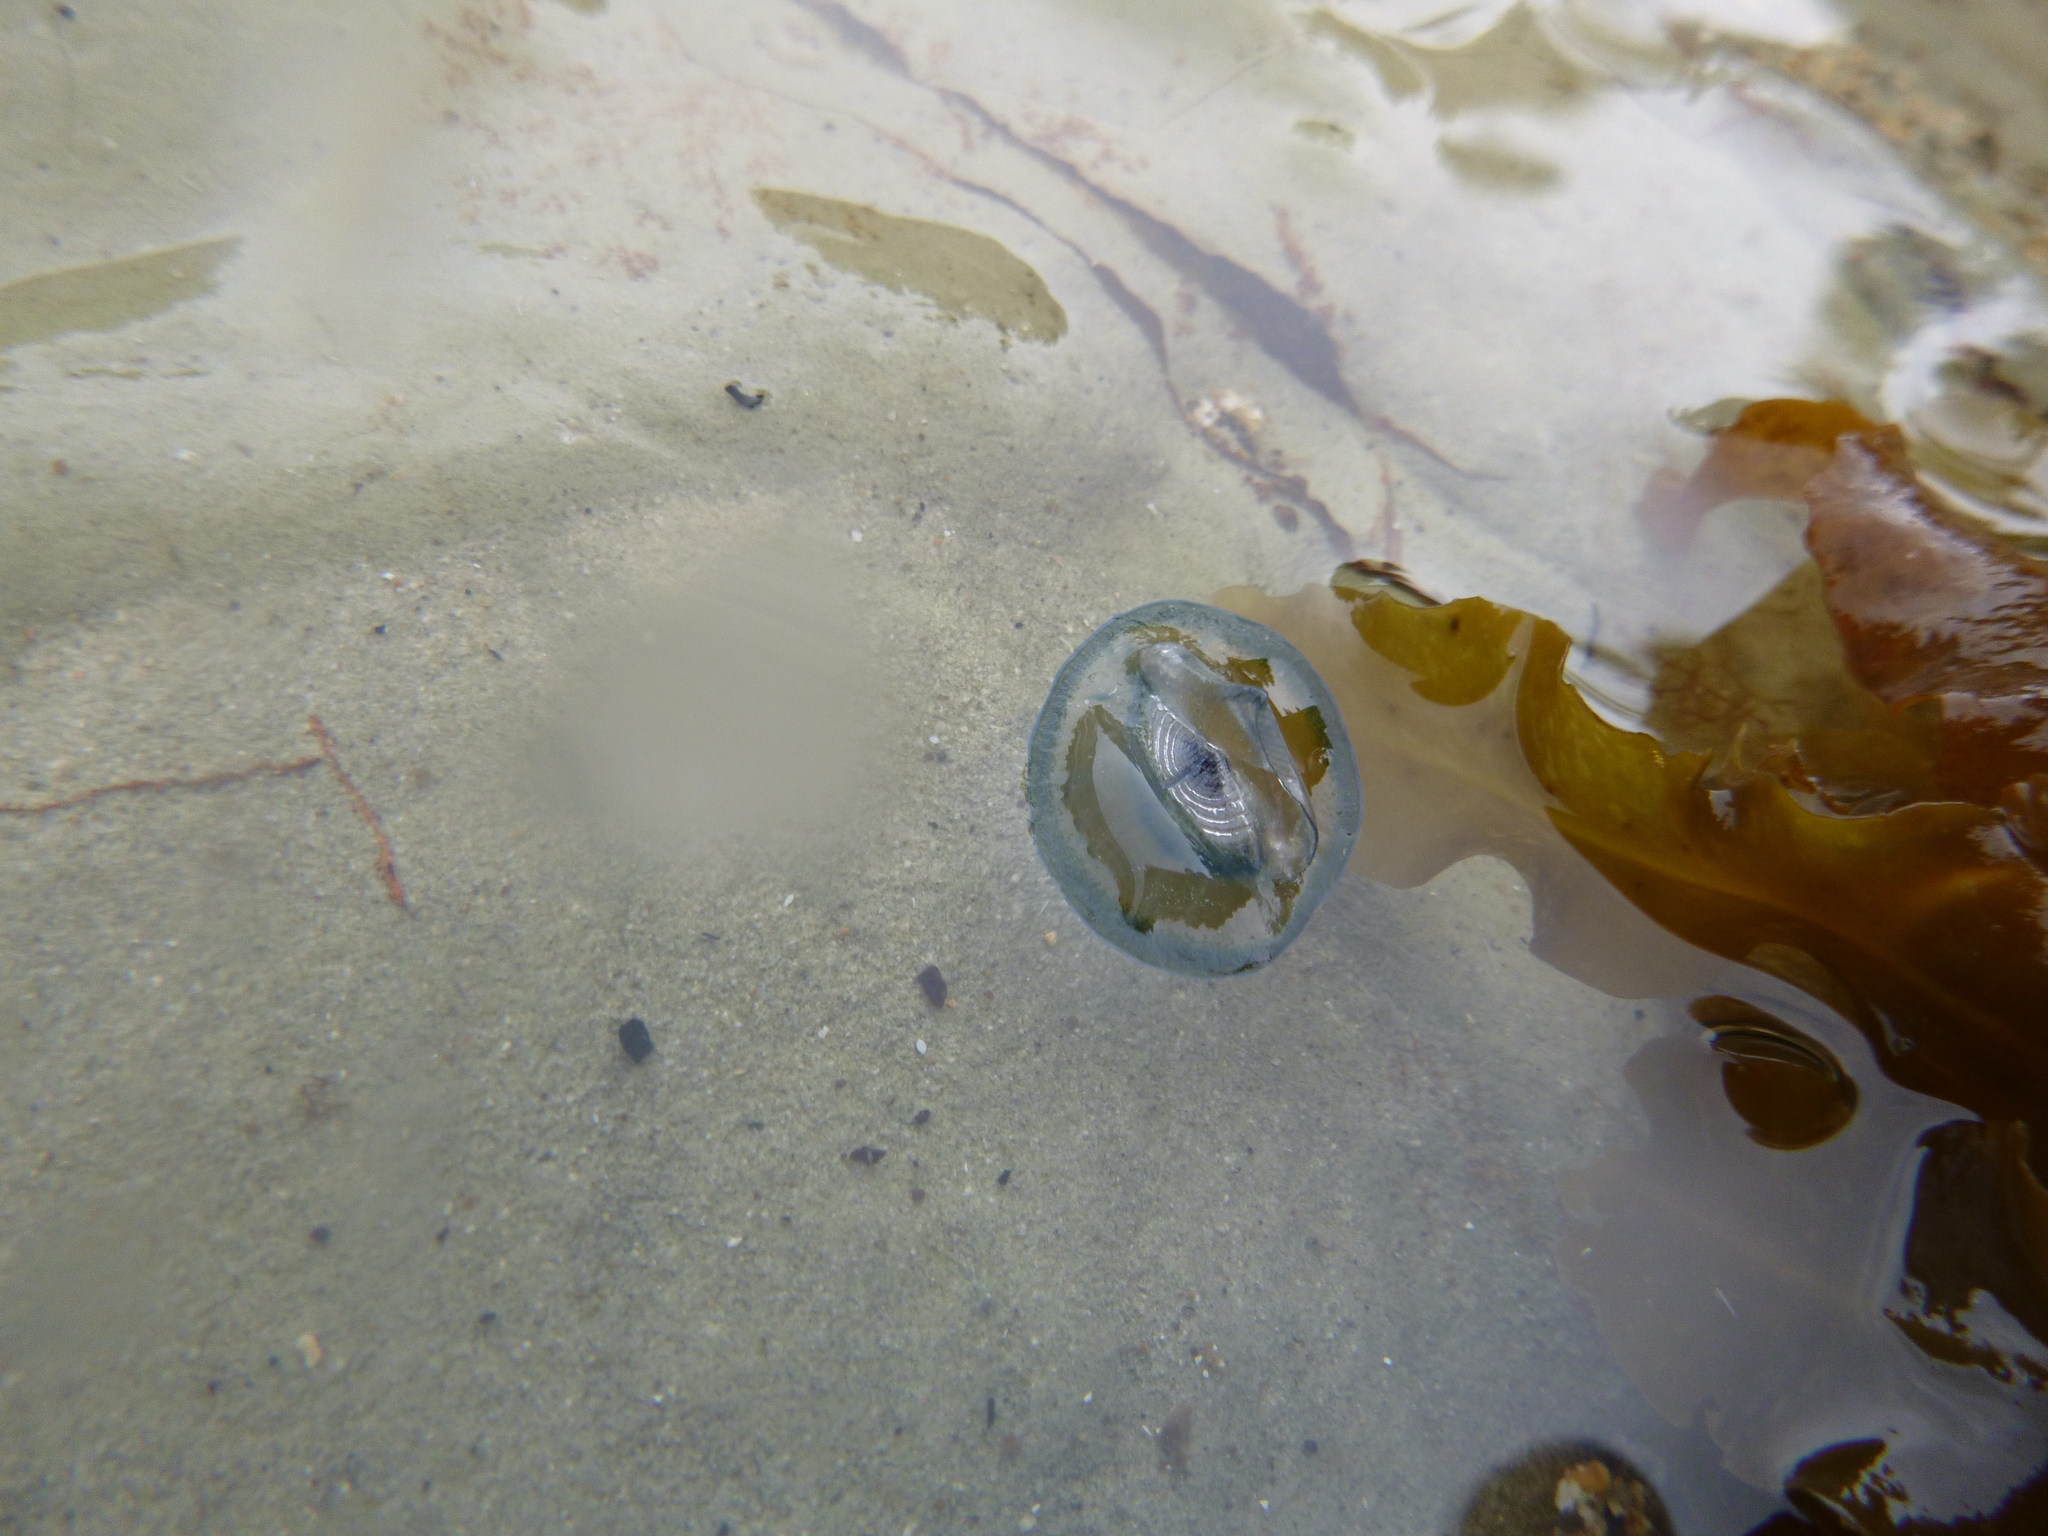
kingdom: Animalia
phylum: Cnidaria
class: Hydrozoa
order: Anthoathecata
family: Porpitidae
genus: Velella
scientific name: Velella velella
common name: By-the-wind-sailor
